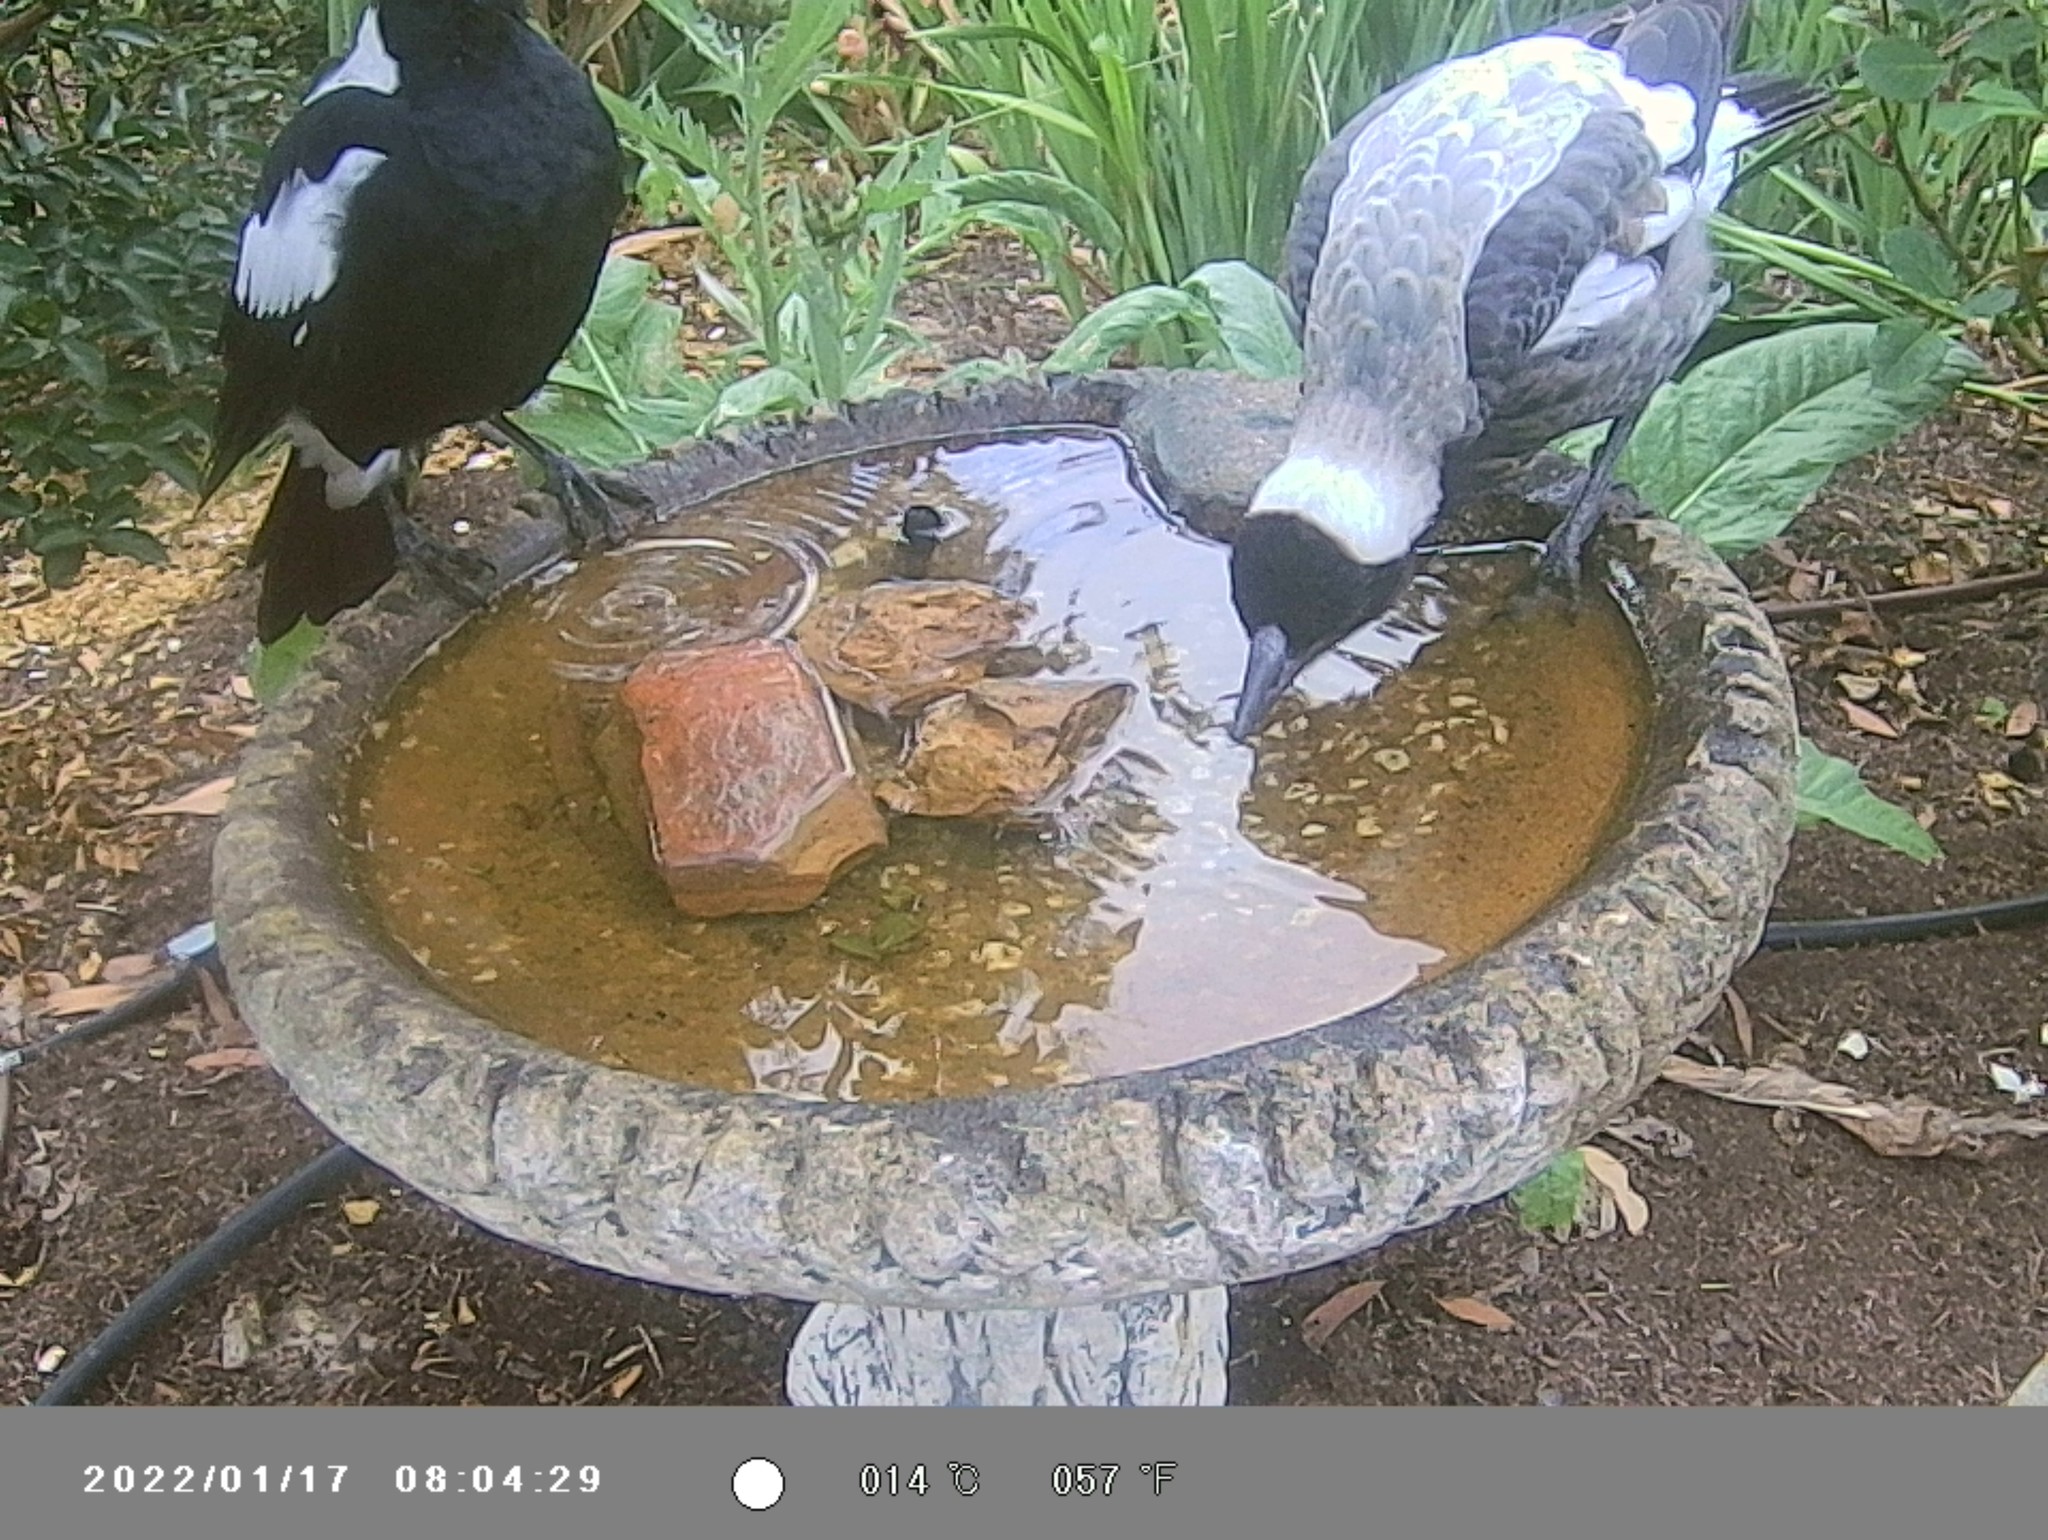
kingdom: Animalia
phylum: Chordata
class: Aves
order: Passeriformes
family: Cracticidae
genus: Gymnorhina
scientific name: Gymnorhina tibicen
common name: Australian magpie
